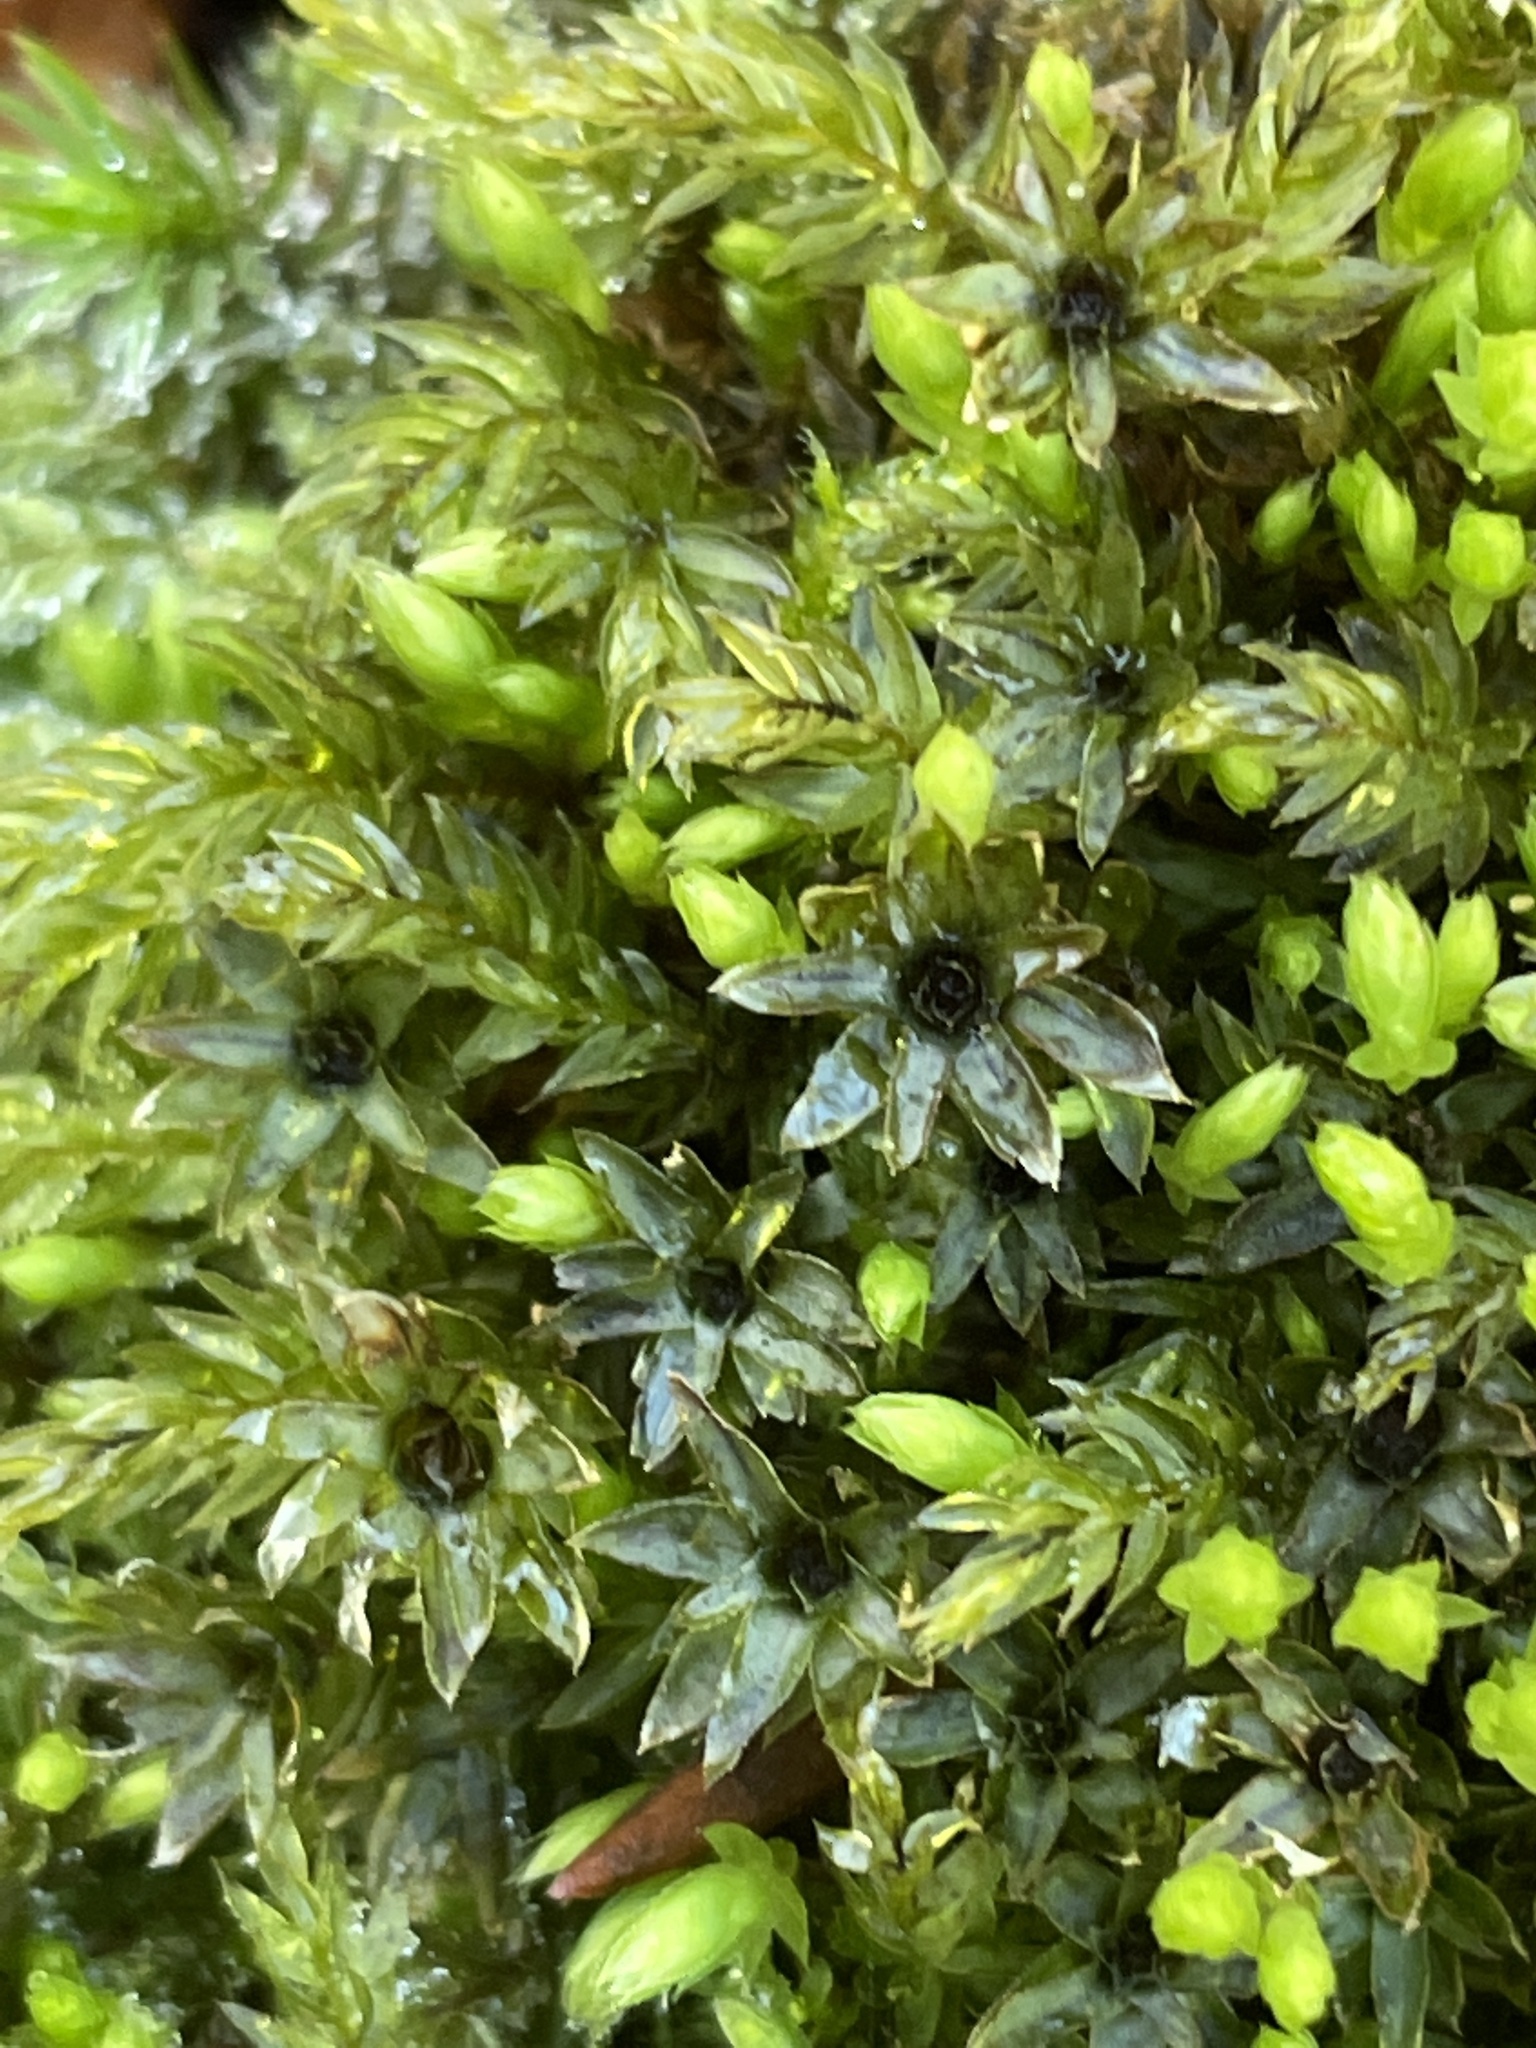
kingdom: Plantae
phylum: Bryophyta
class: Bryopsida
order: Bryales
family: Mniaceae
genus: Mnium
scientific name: Mnium hornum
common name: Swan's-neck leafy moss
